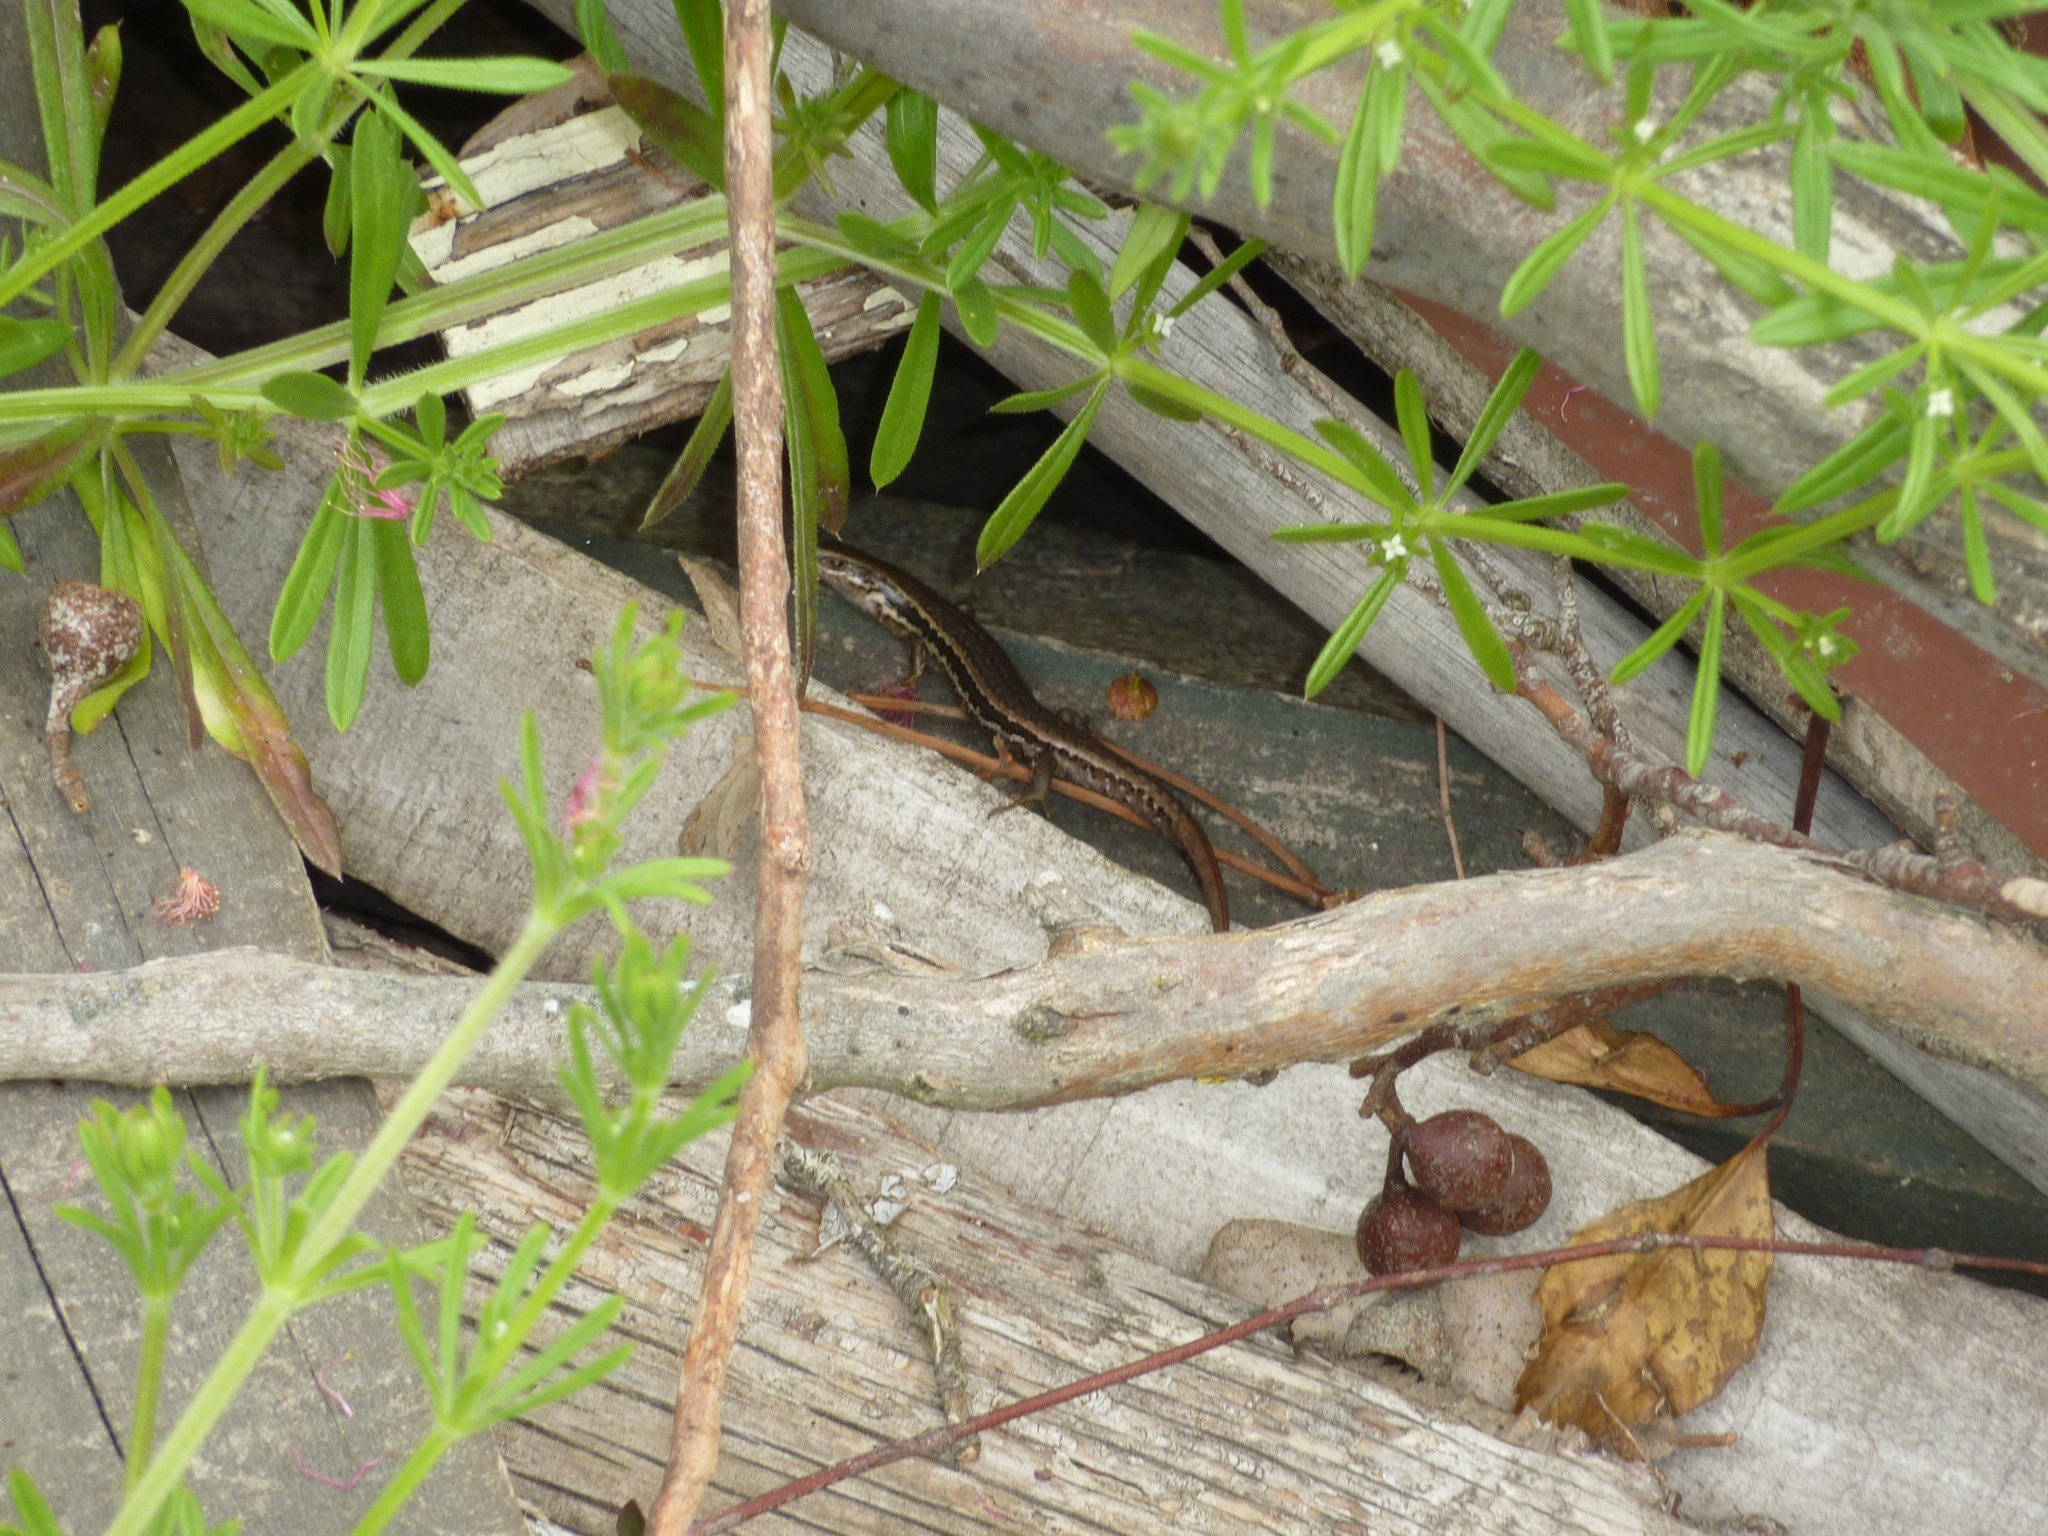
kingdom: Animalia
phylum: Chordata
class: Squamata
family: Scincidae
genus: Oligosoma
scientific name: Oligosoma polychroma
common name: Common new zealand skink
